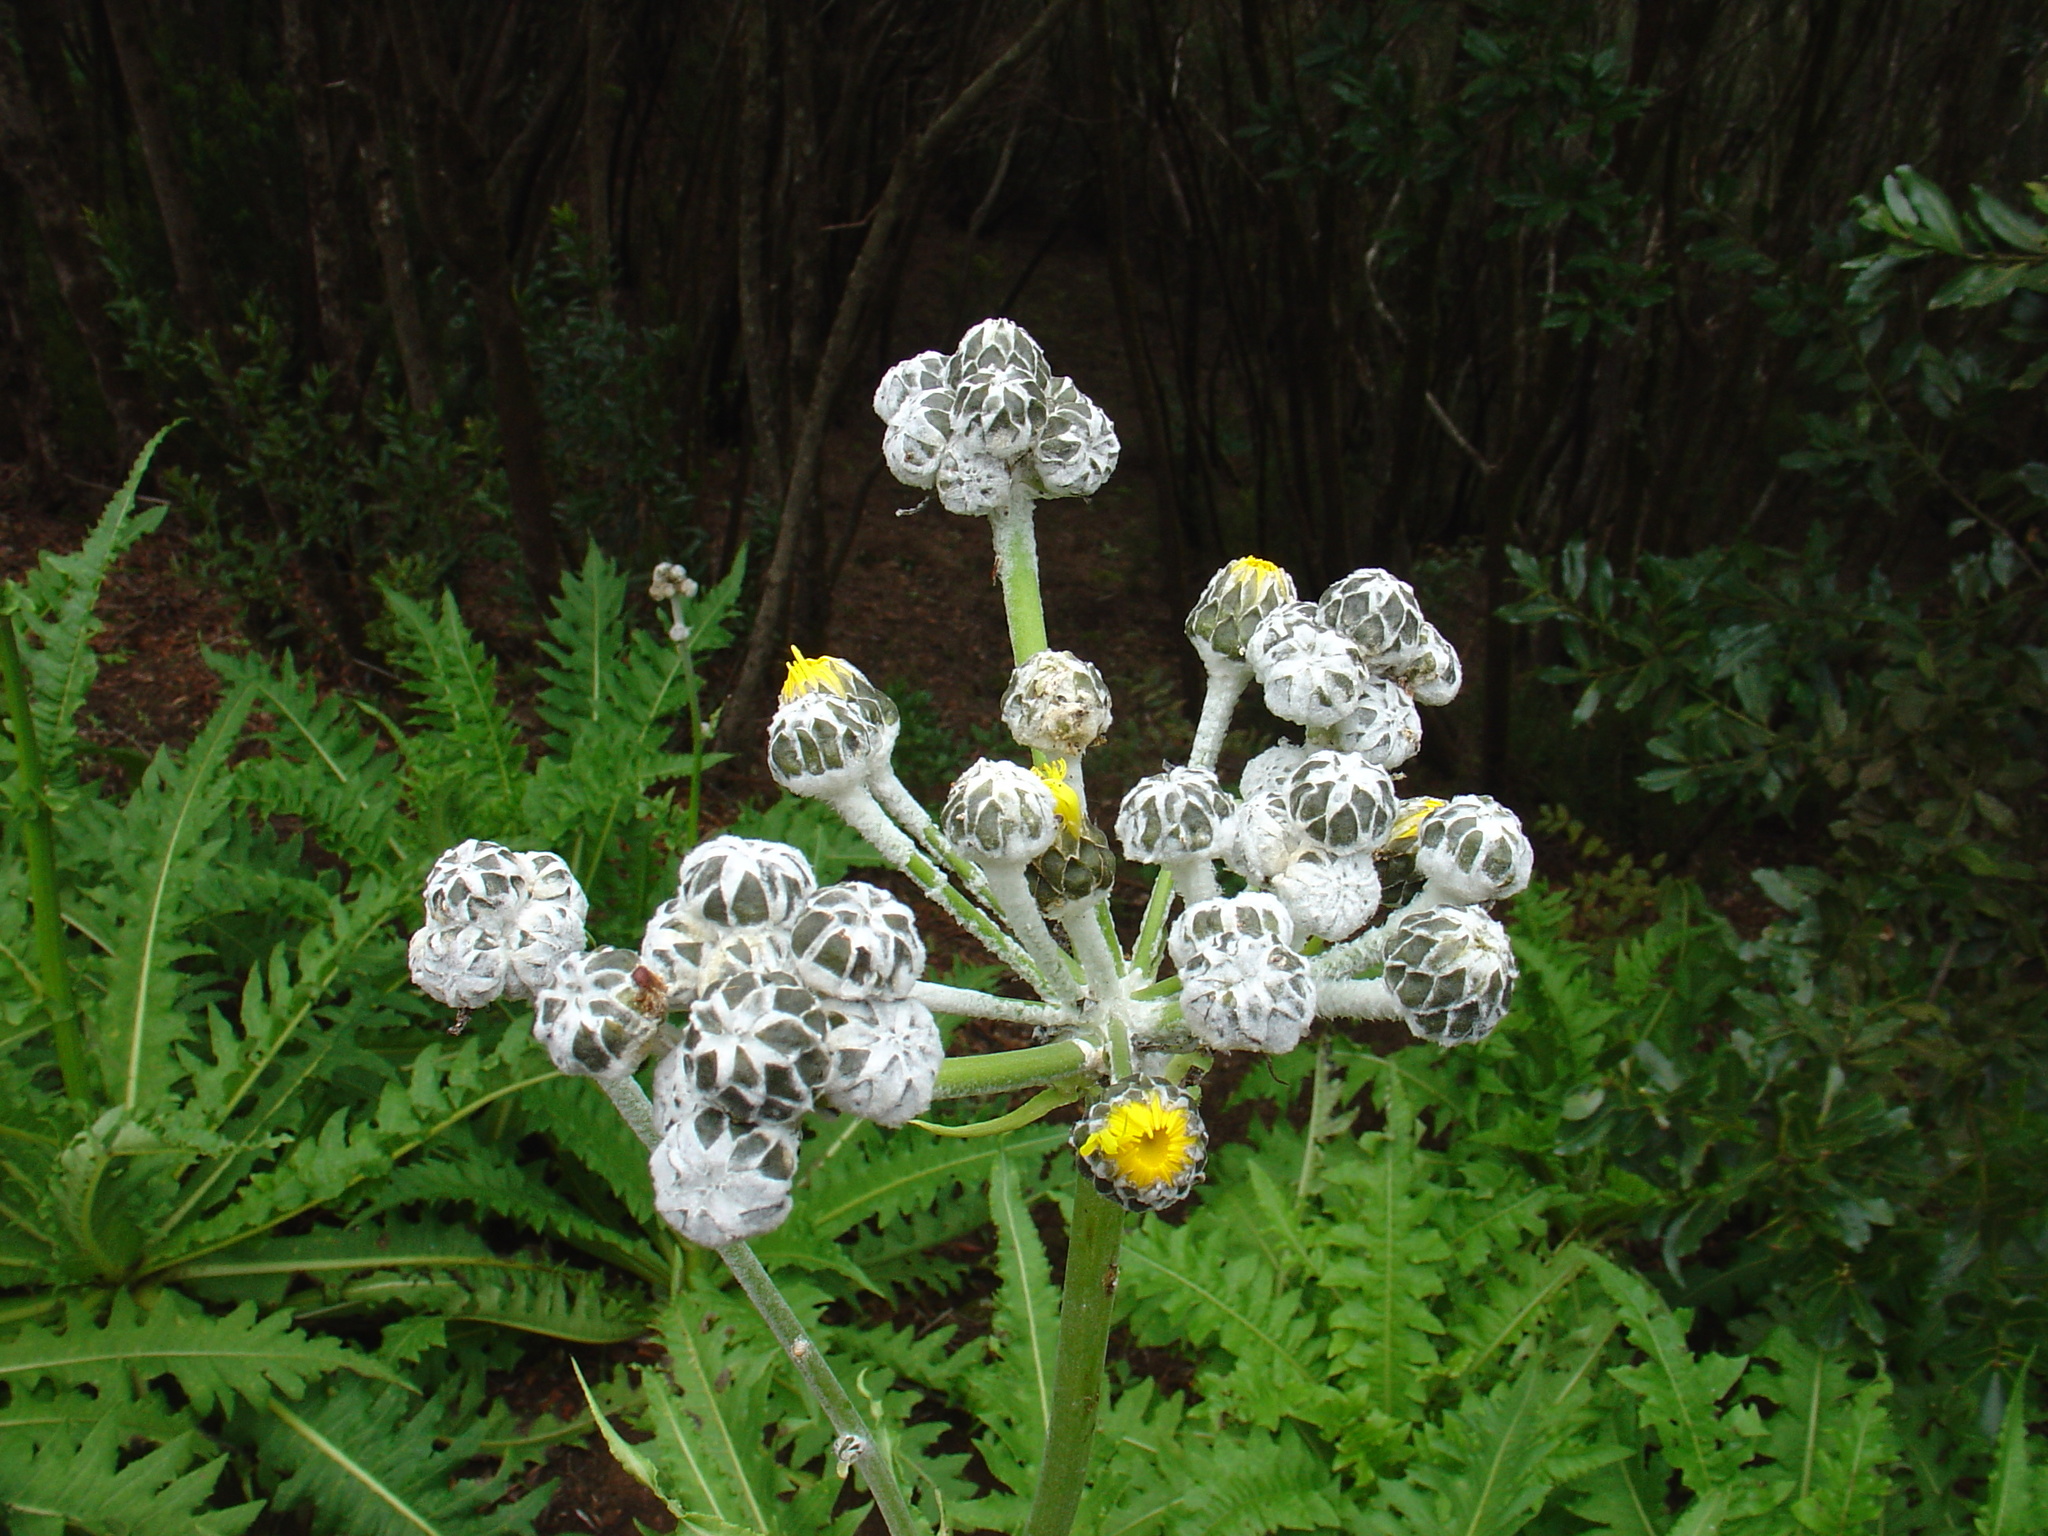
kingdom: Plantae
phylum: Tracheophyta
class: Magnoliopsida
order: Asterales
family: Asteraceae
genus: Sonchus
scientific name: Sonchus acaulis
